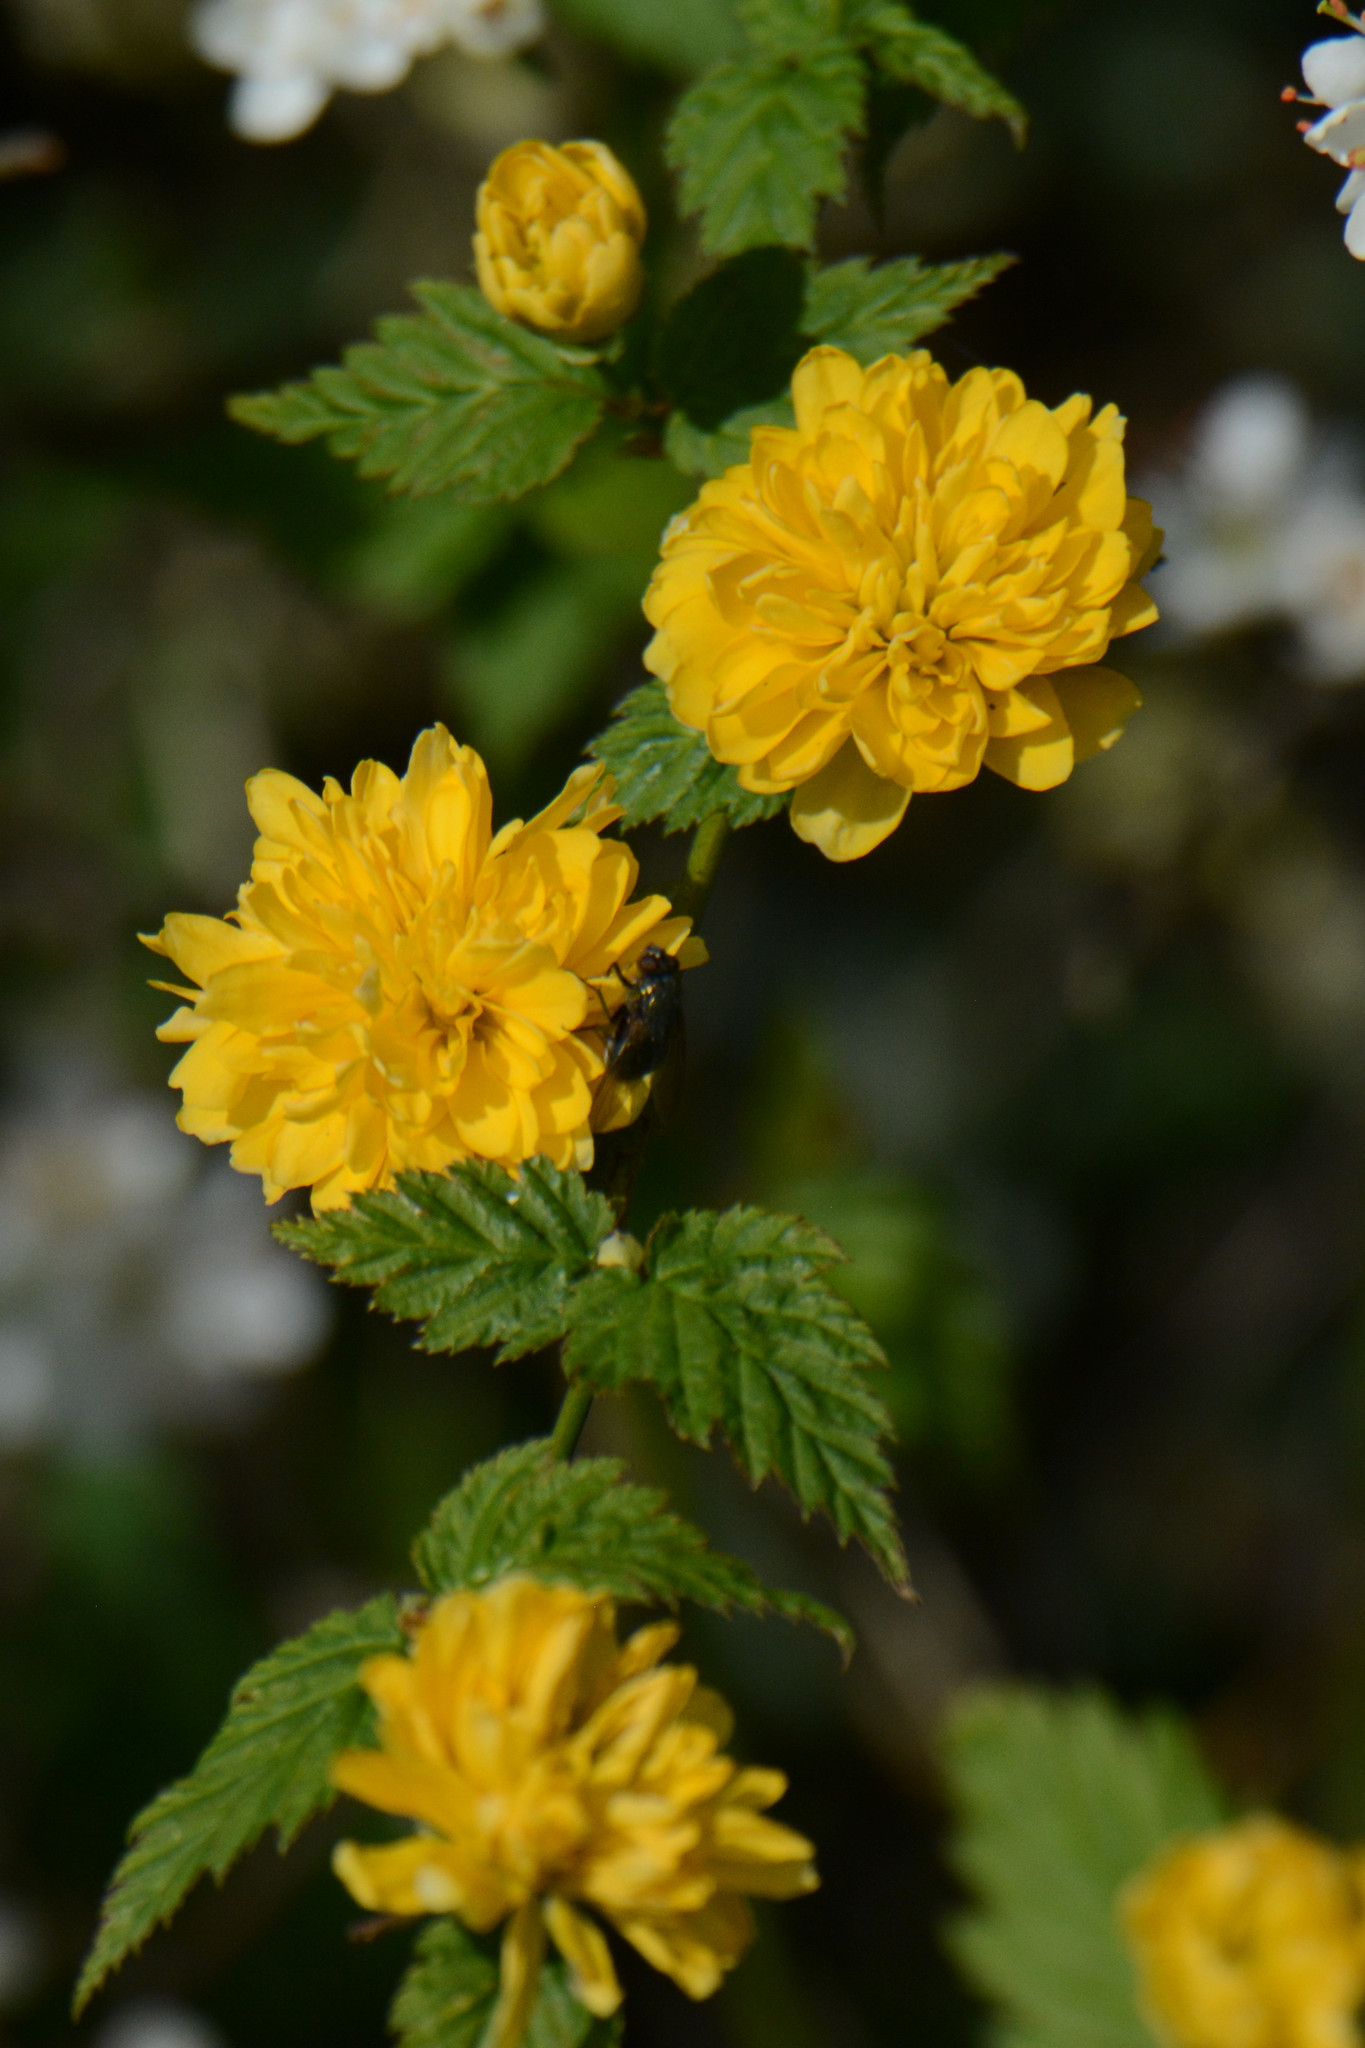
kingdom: Plantae
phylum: Tracheophyta
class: Magnoliopsida
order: Rosales
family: Rosaceae
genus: Kerria
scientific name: Kerria japonica
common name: Japanese kerria
